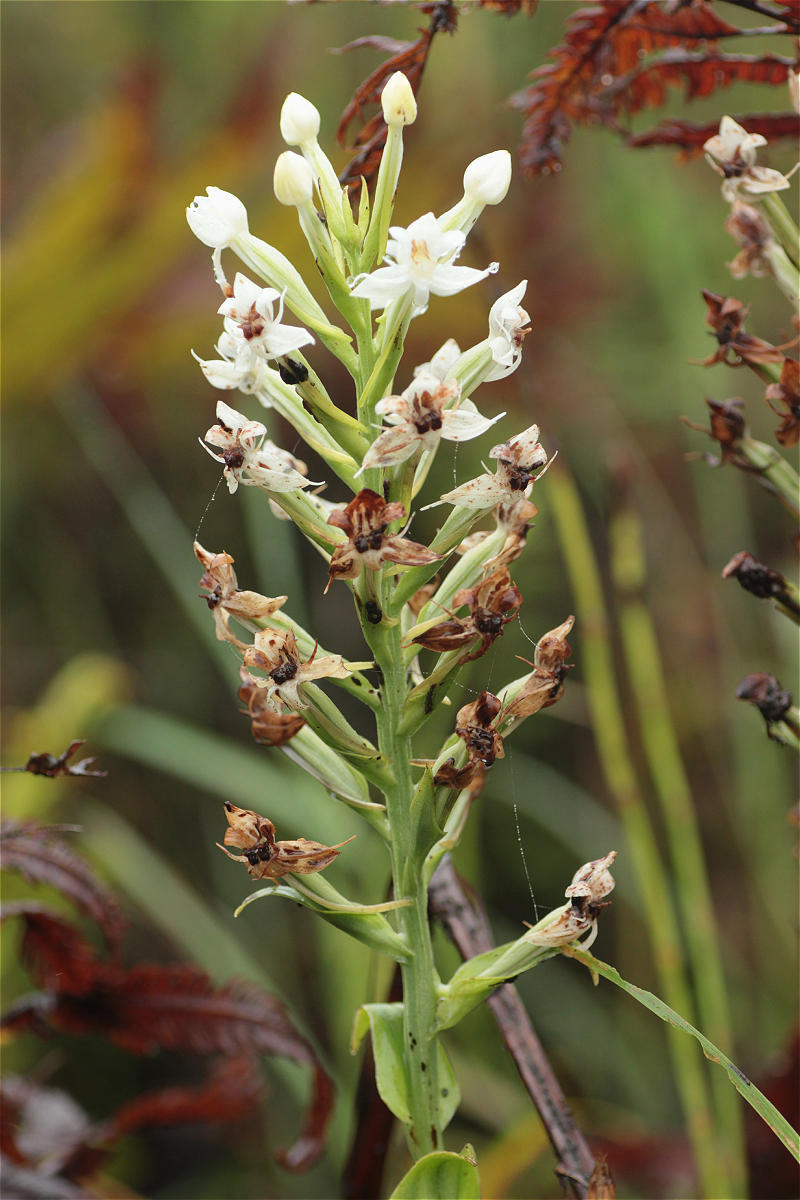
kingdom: Plantae
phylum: Tracheophyta
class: Liliopsida
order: Asparagales
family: Orchidaceae
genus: Habenaria
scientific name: Habenaria monorrhiza
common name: Tropical bog orchid
